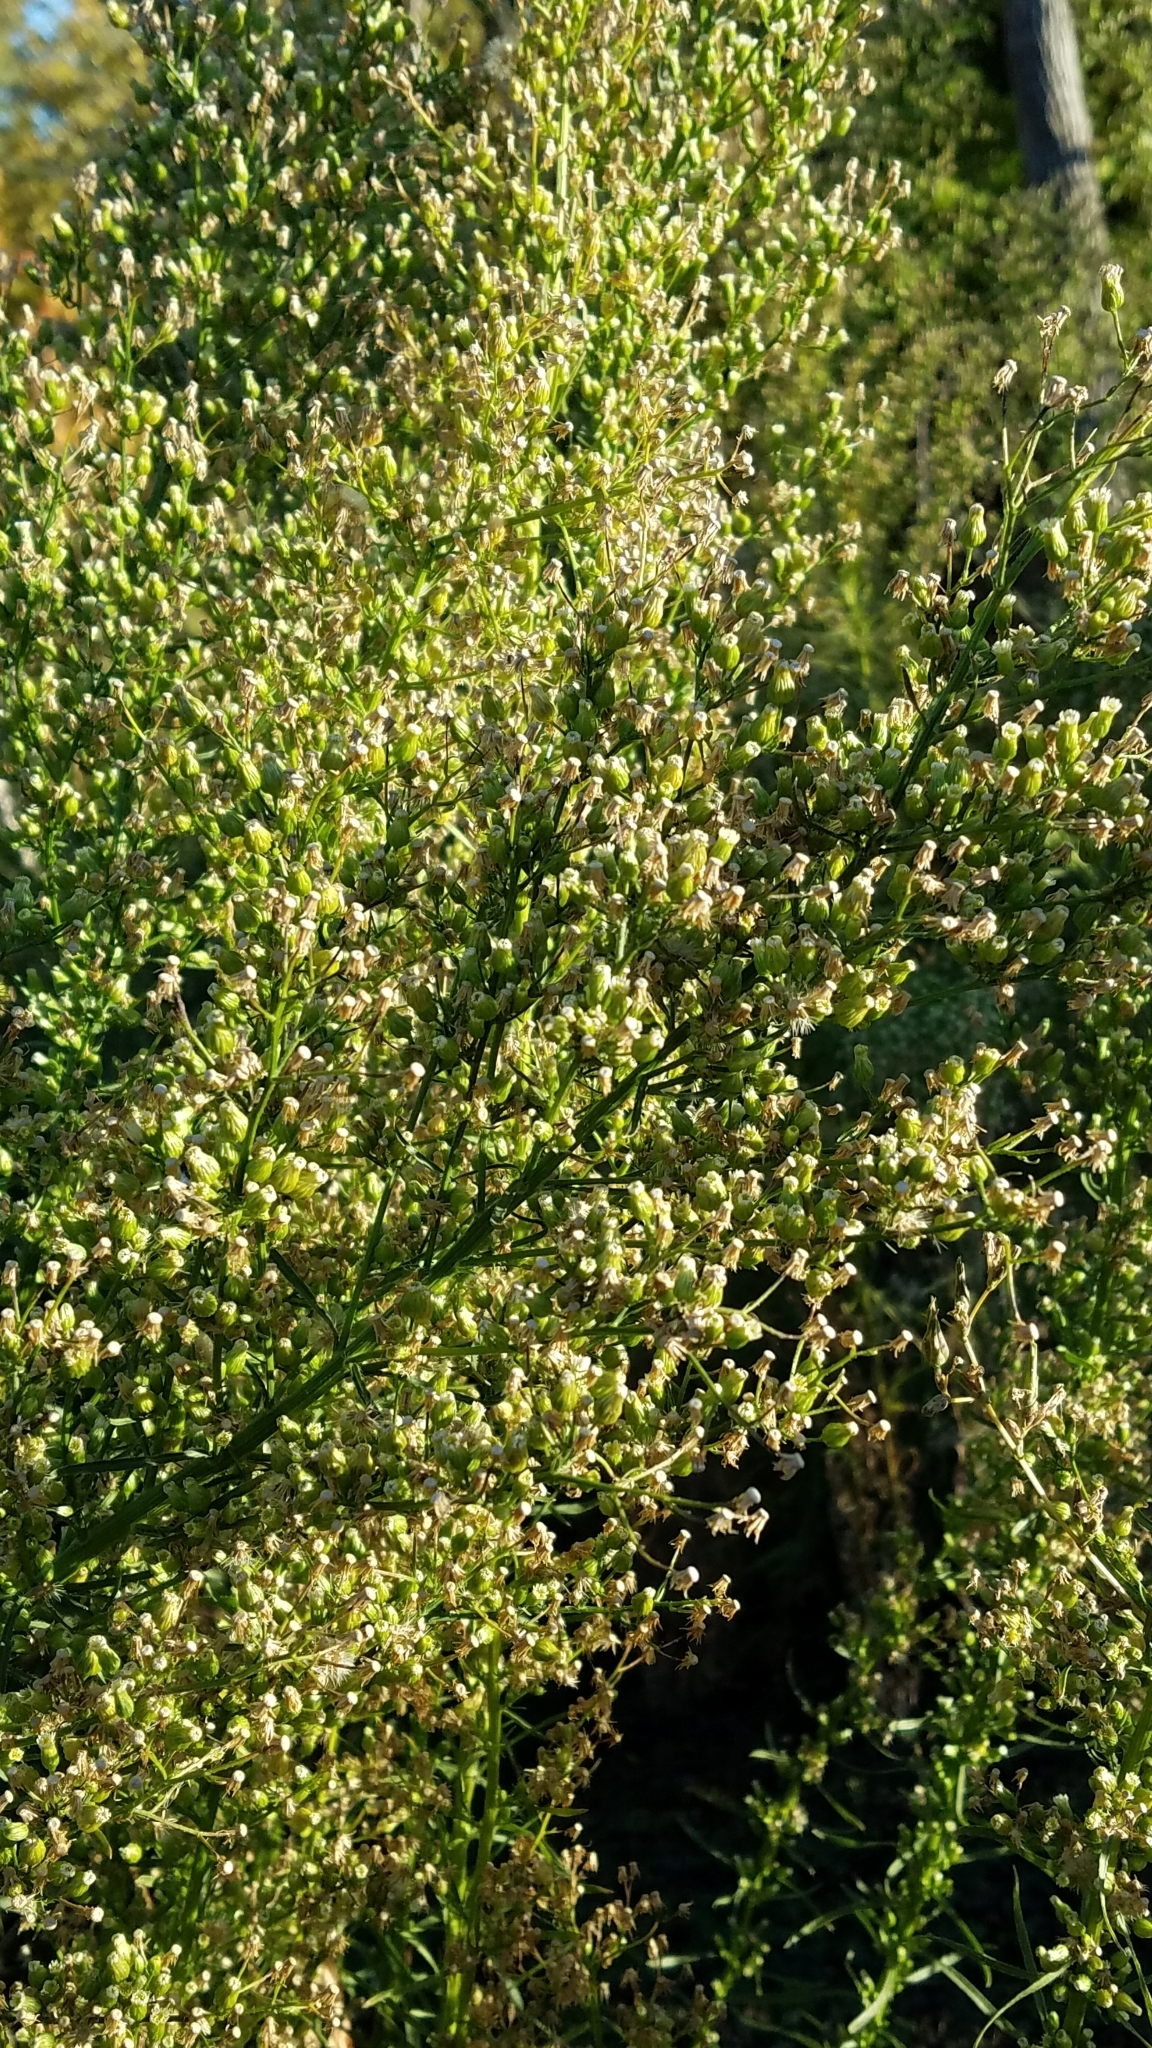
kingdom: Plantae
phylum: Tracheophyta
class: Magnoliopsida
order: Asterales
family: Asteraceae
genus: Erigeron
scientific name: Erigeron canadensis
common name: Canadian fleabane
